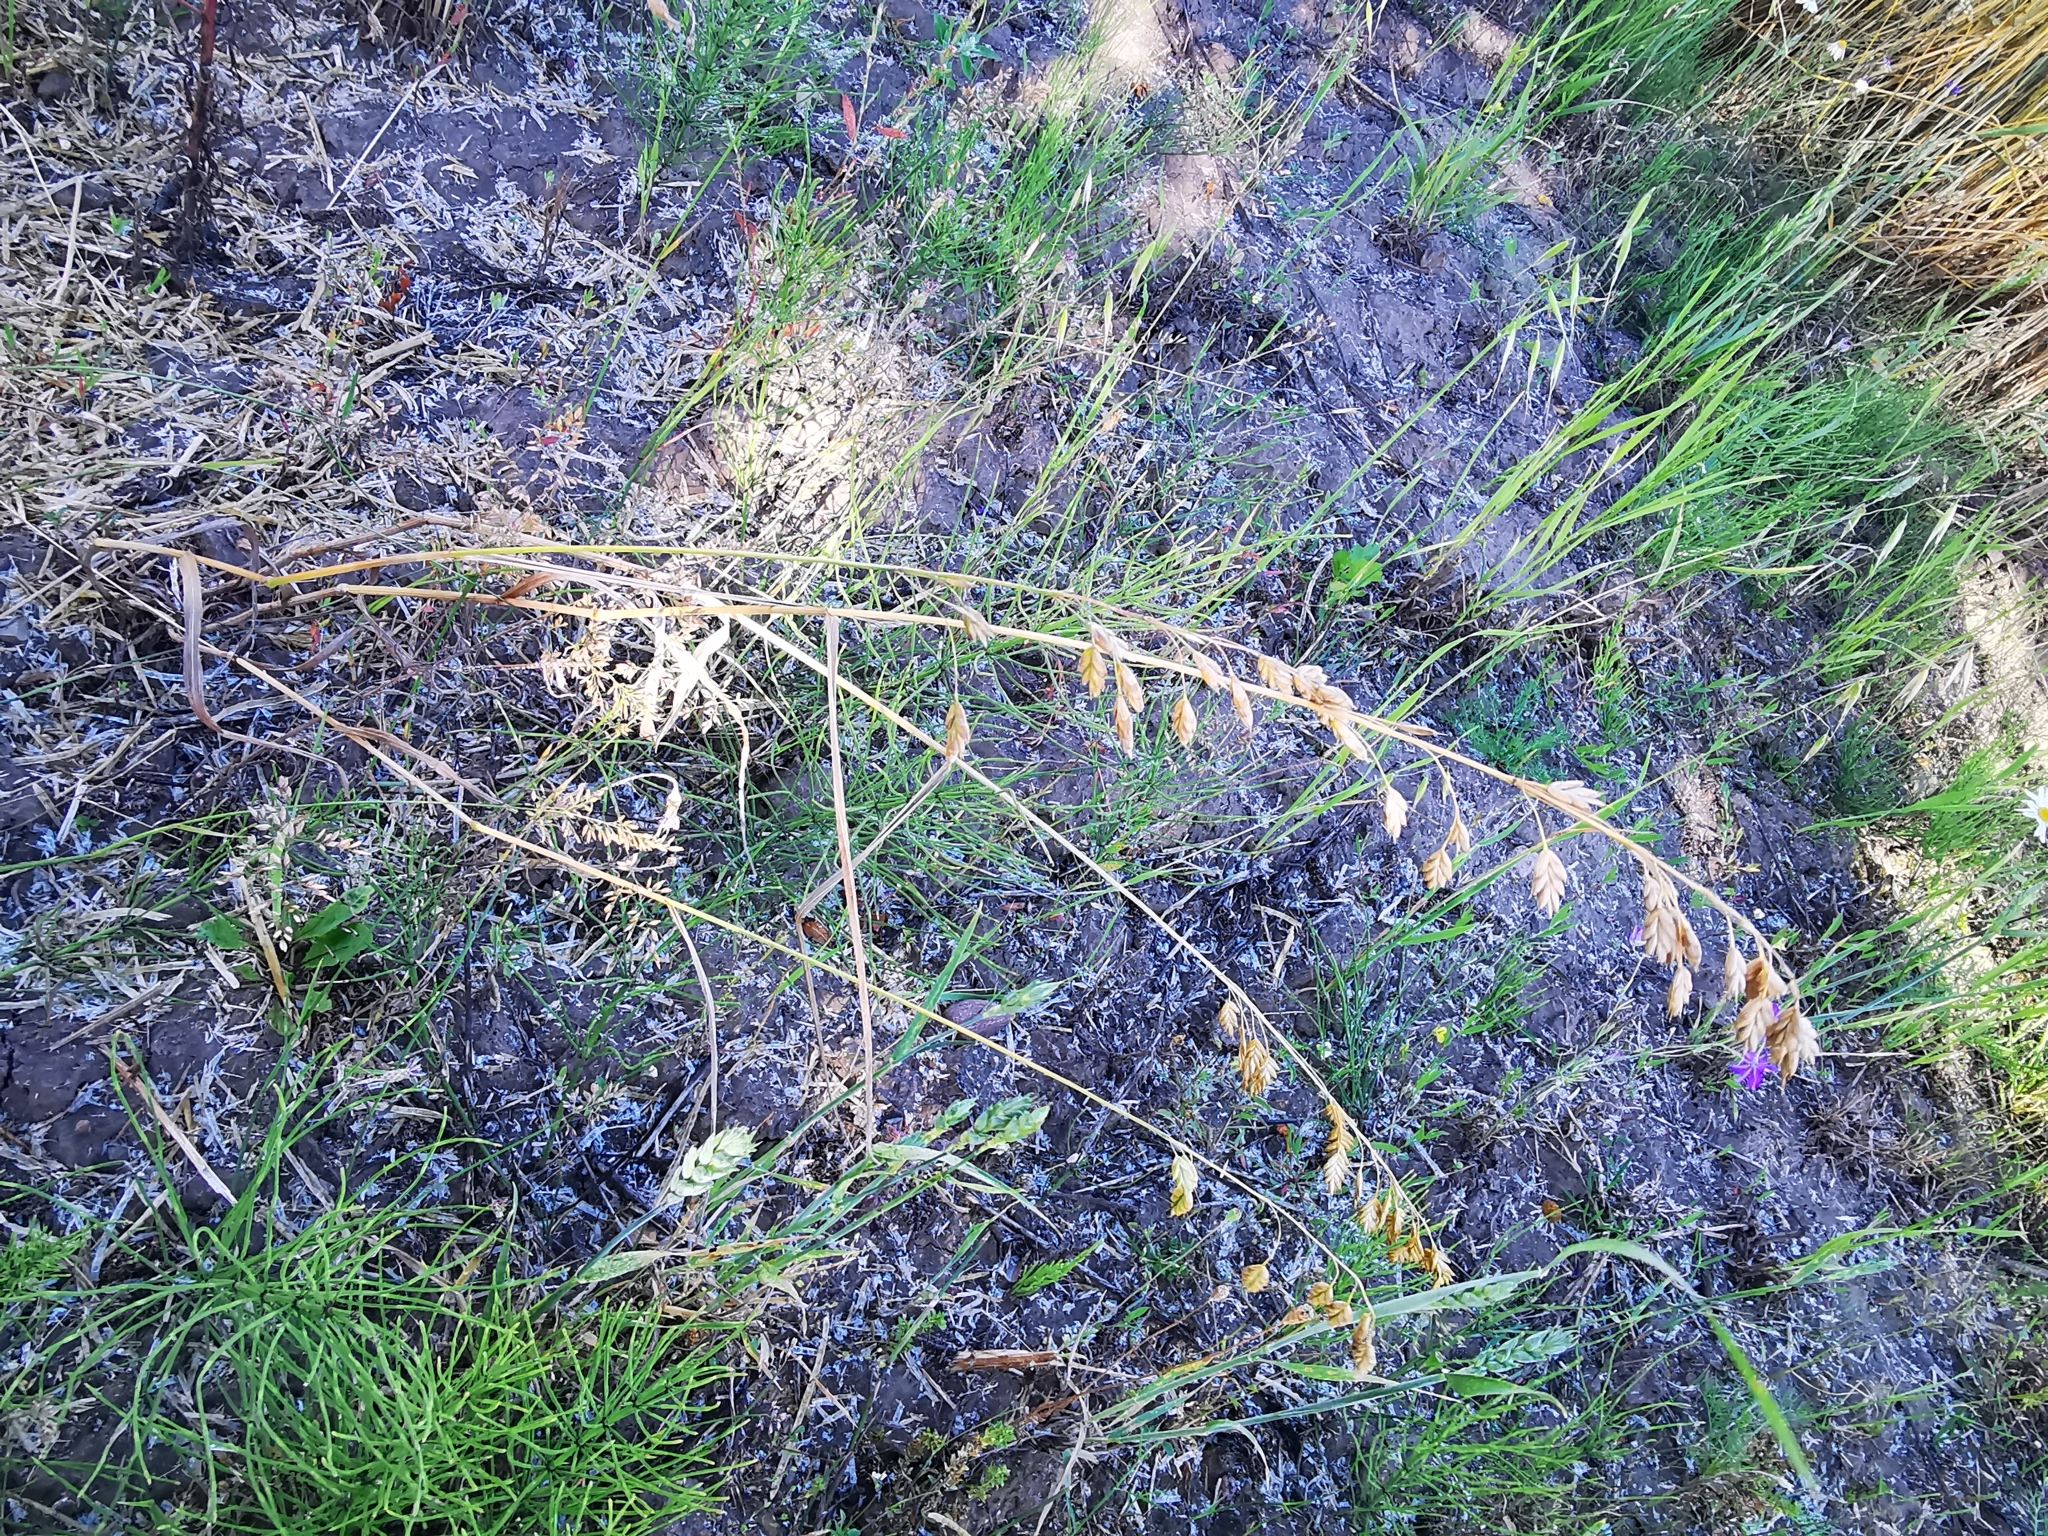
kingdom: Plantae
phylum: Tracheophyta
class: Liliopsida
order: Poales
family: Poaceae
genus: Bromus
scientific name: Bromus secalinus
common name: Rye brome
